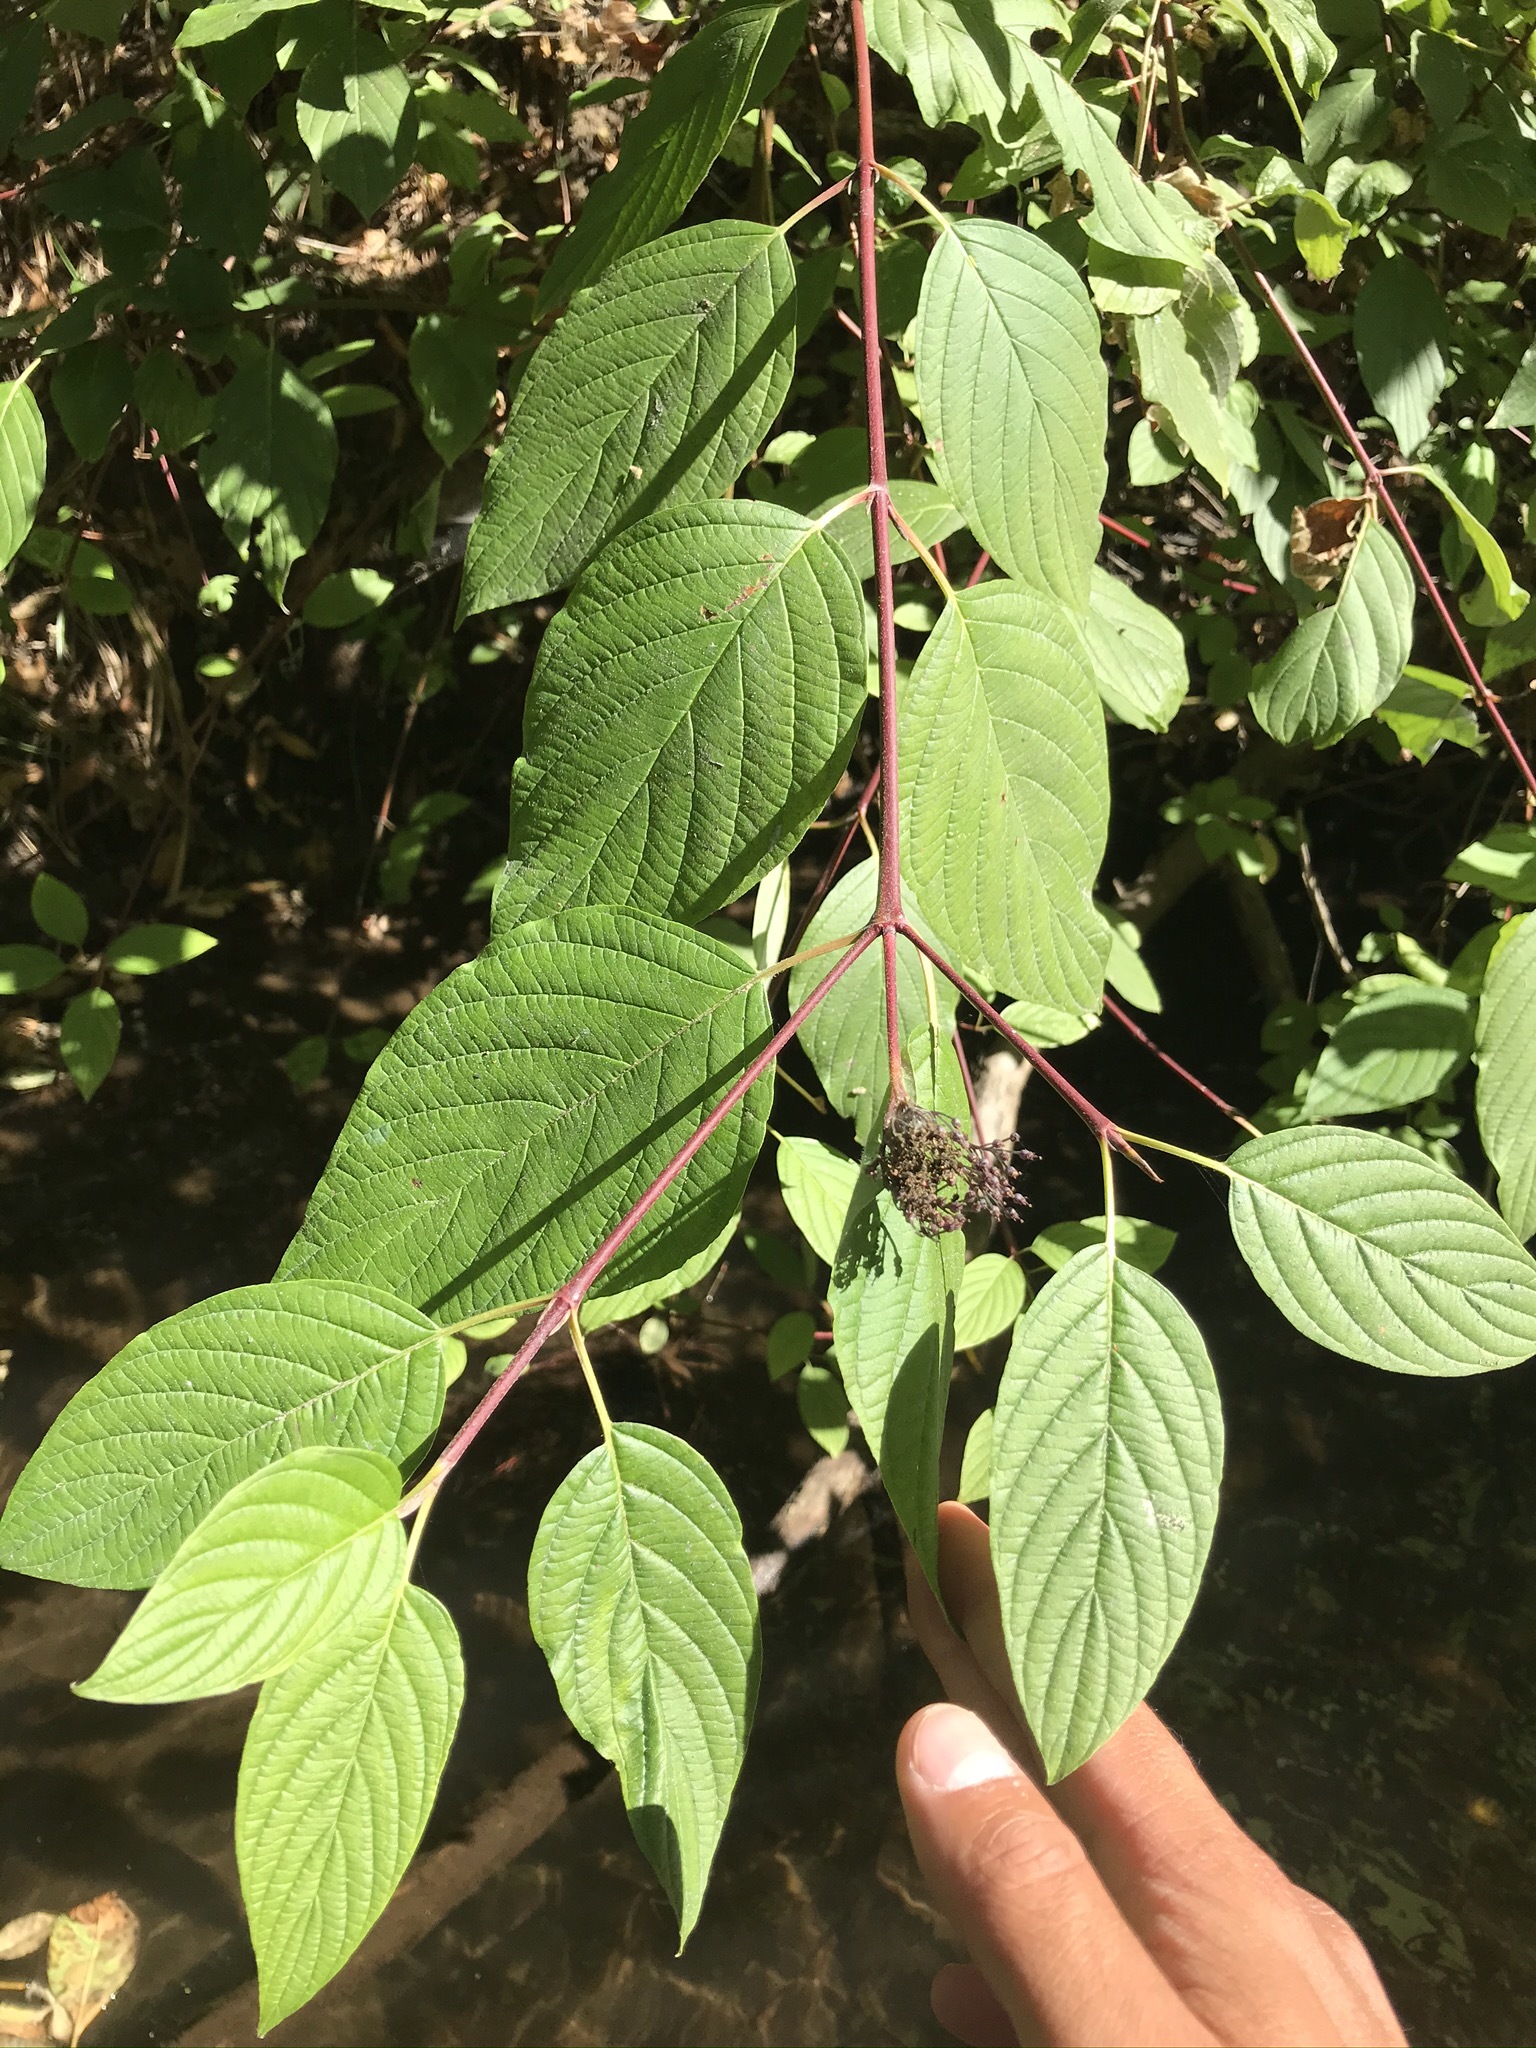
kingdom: Plantae
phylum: Tracheophyta
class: Magnoliopsida
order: Cornales
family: Cornaceae
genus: Cornus
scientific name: Cornus sericea
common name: Red-osier dogwood
